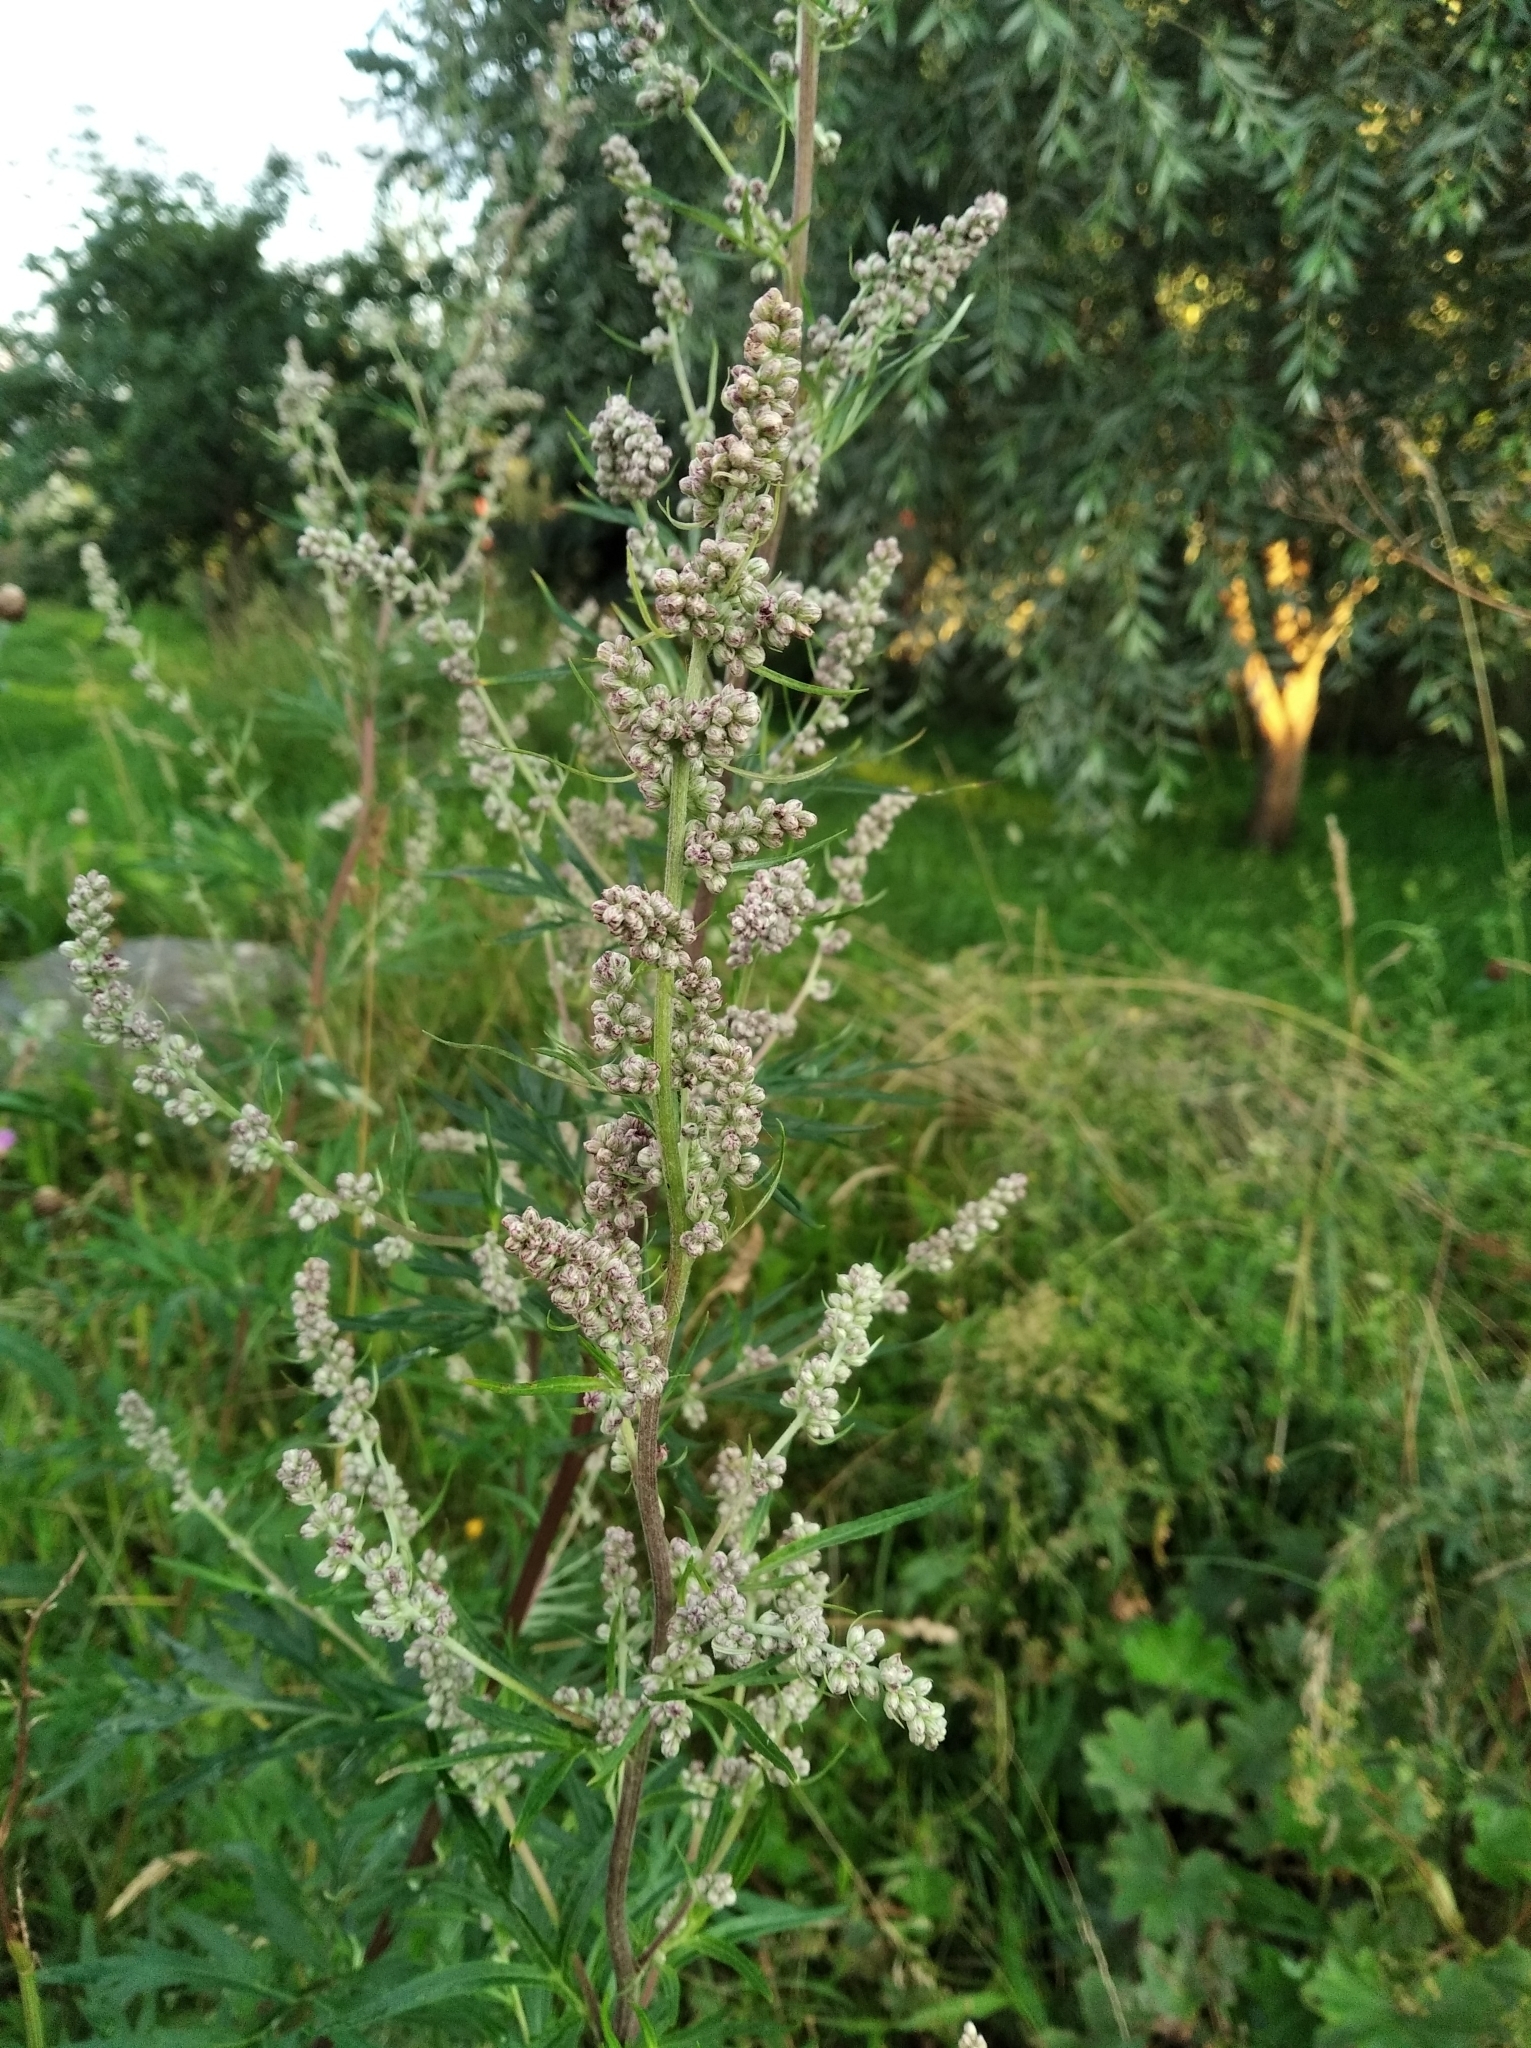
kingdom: Plantae
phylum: Tracheophyta
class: Magnoliopsida
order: Asterales
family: Asteraceae
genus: Artemisia
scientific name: Artemisia vulgaris
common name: Mugwort
